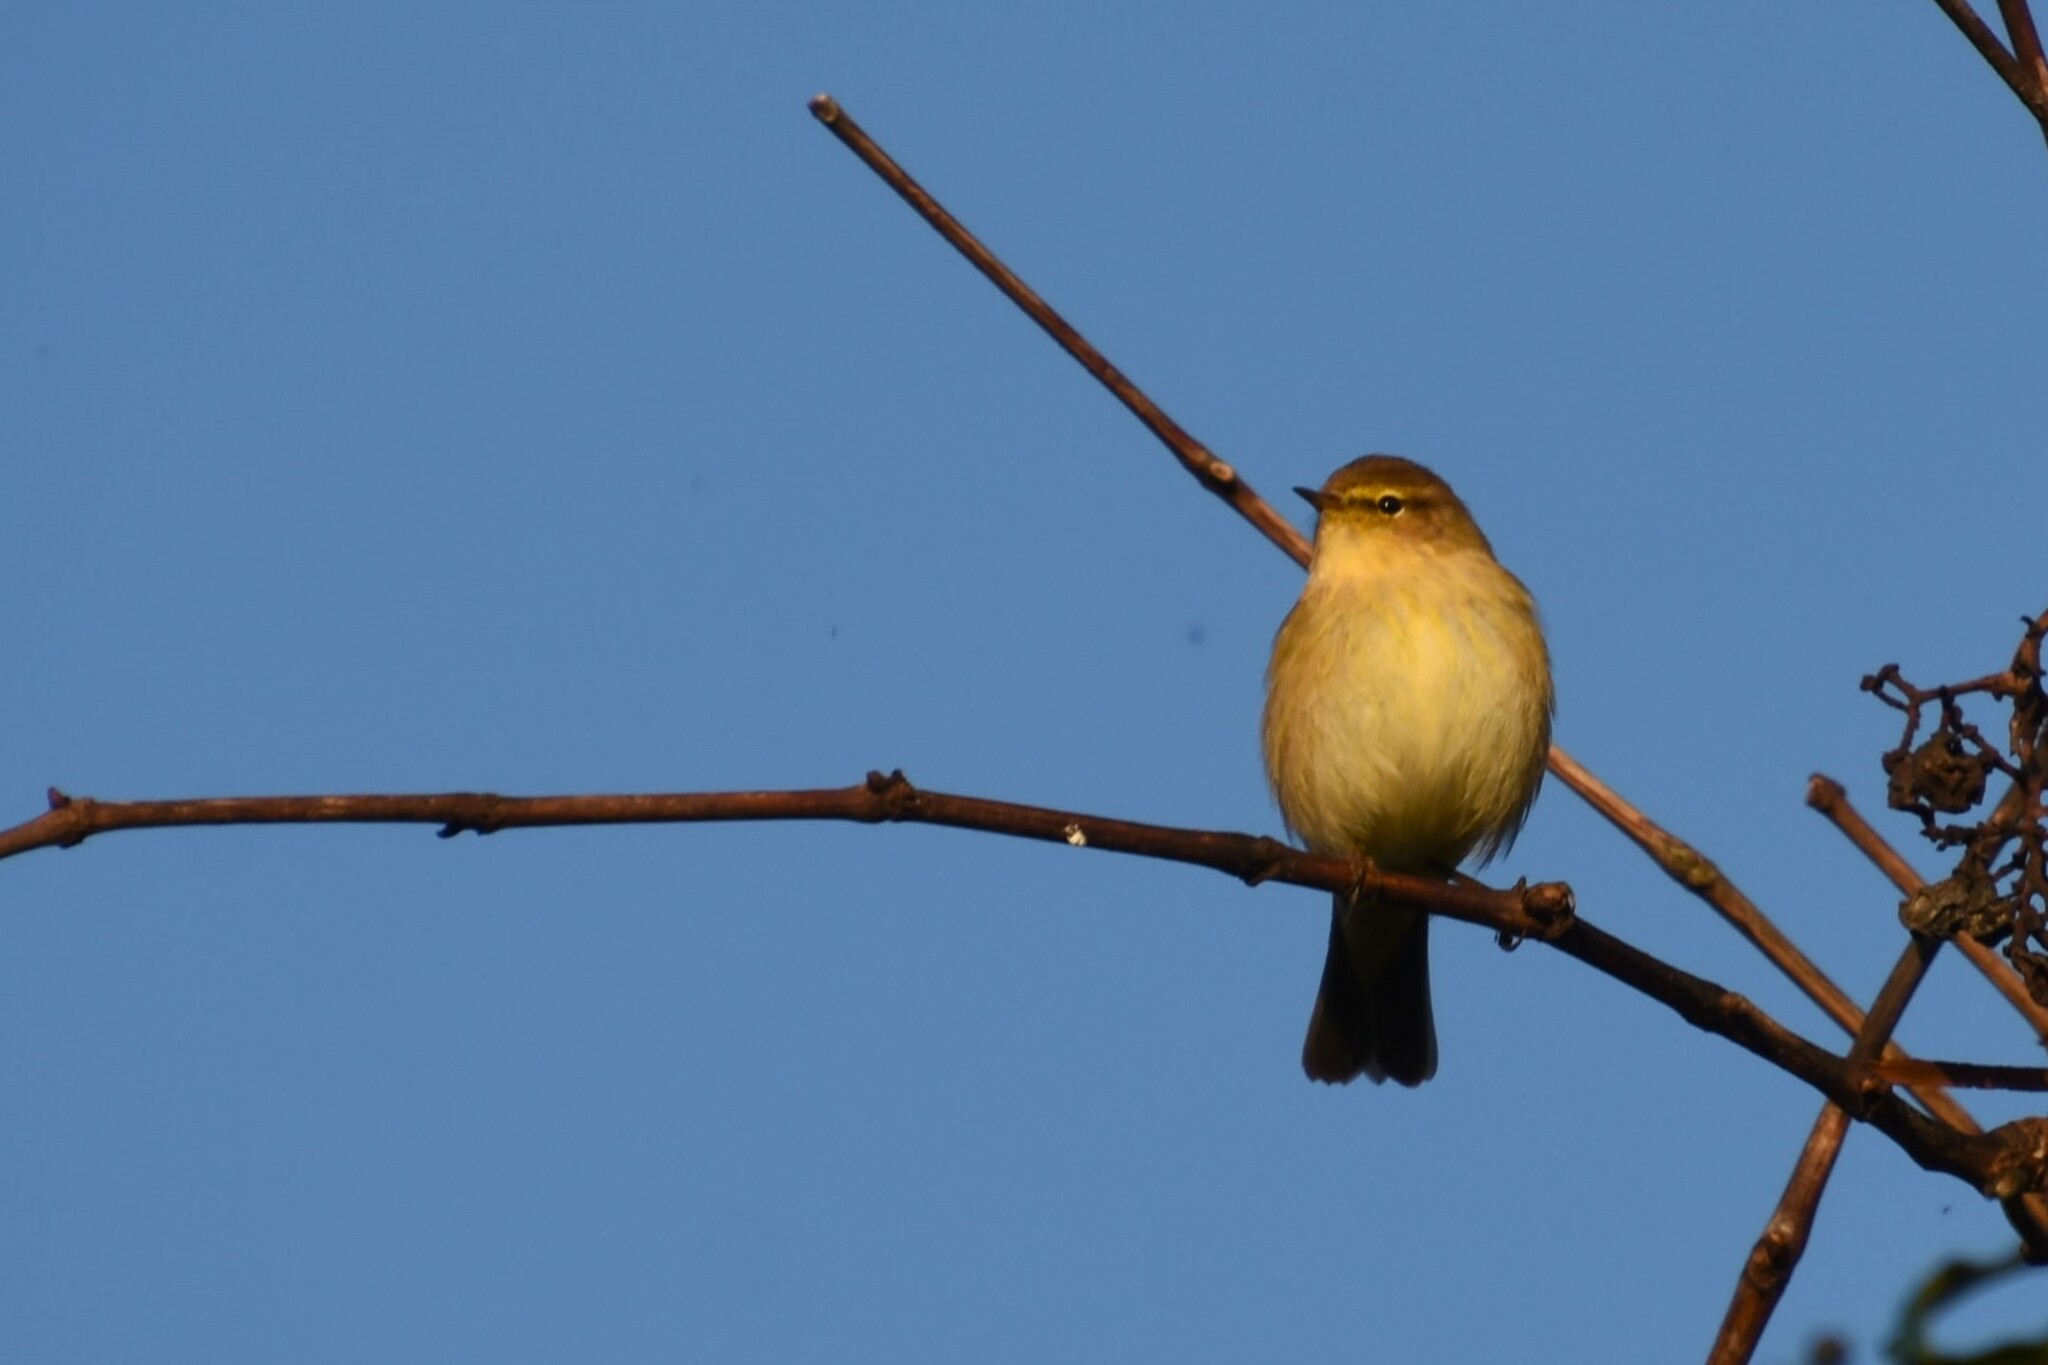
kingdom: Animalia
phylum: Chordata
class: Aves
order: Passeriformes
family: Phylloscopidae
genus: Phylloscopus
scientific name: Phylloscopus collybita
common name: Common chiffchaff
